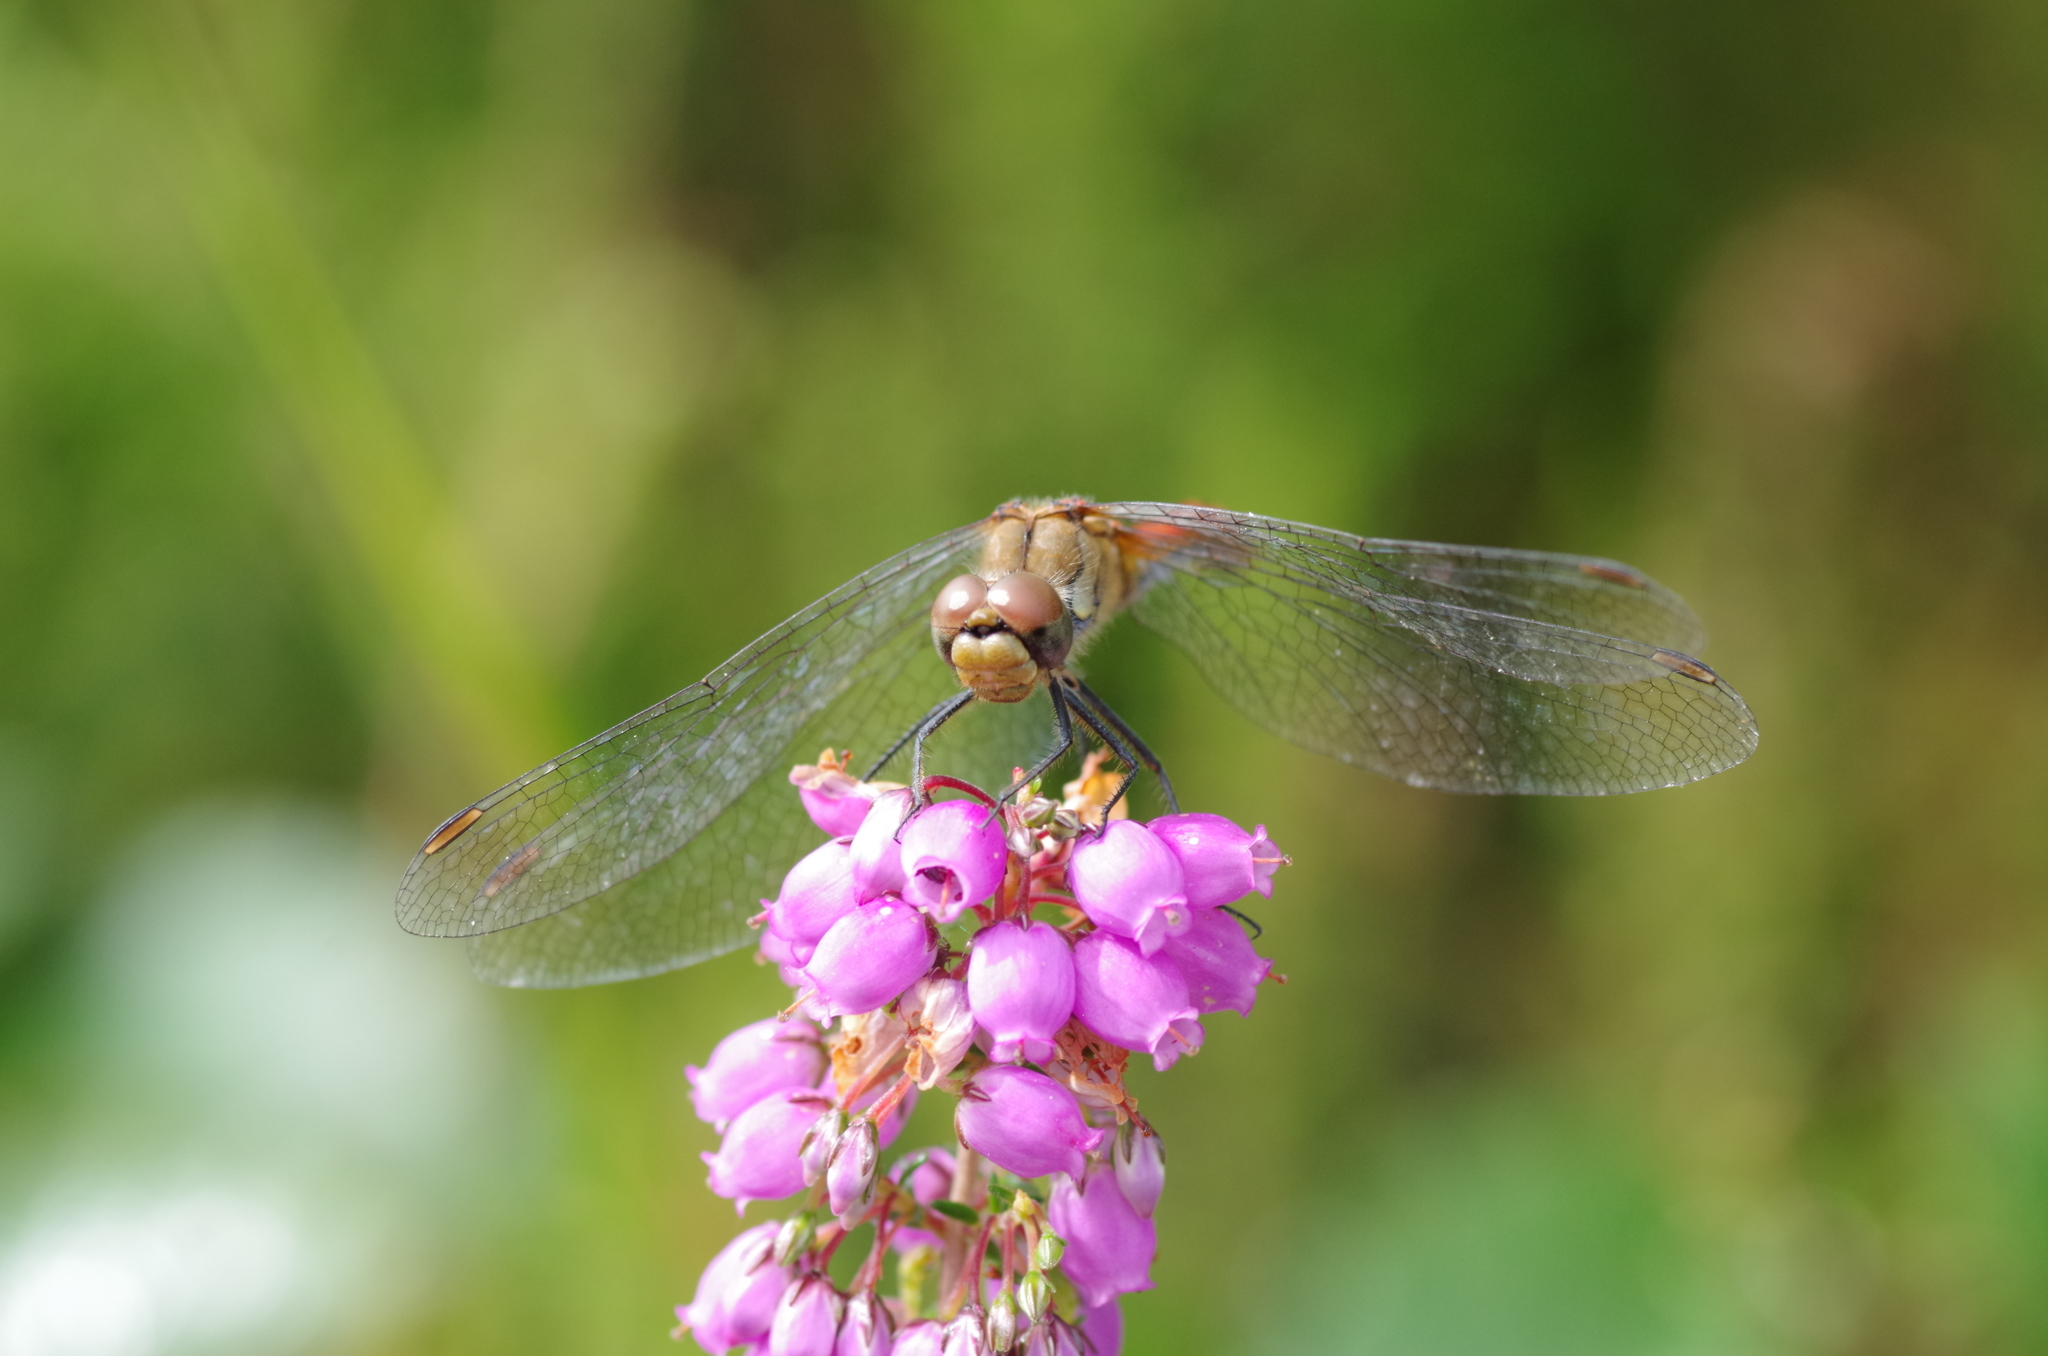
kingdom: Animalia
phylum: Arthropoda
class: Insecta
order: Odonata
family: Libellulidae
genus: Sympetrum
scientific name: Sympetrum sanguineum
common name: Ruddy darter
